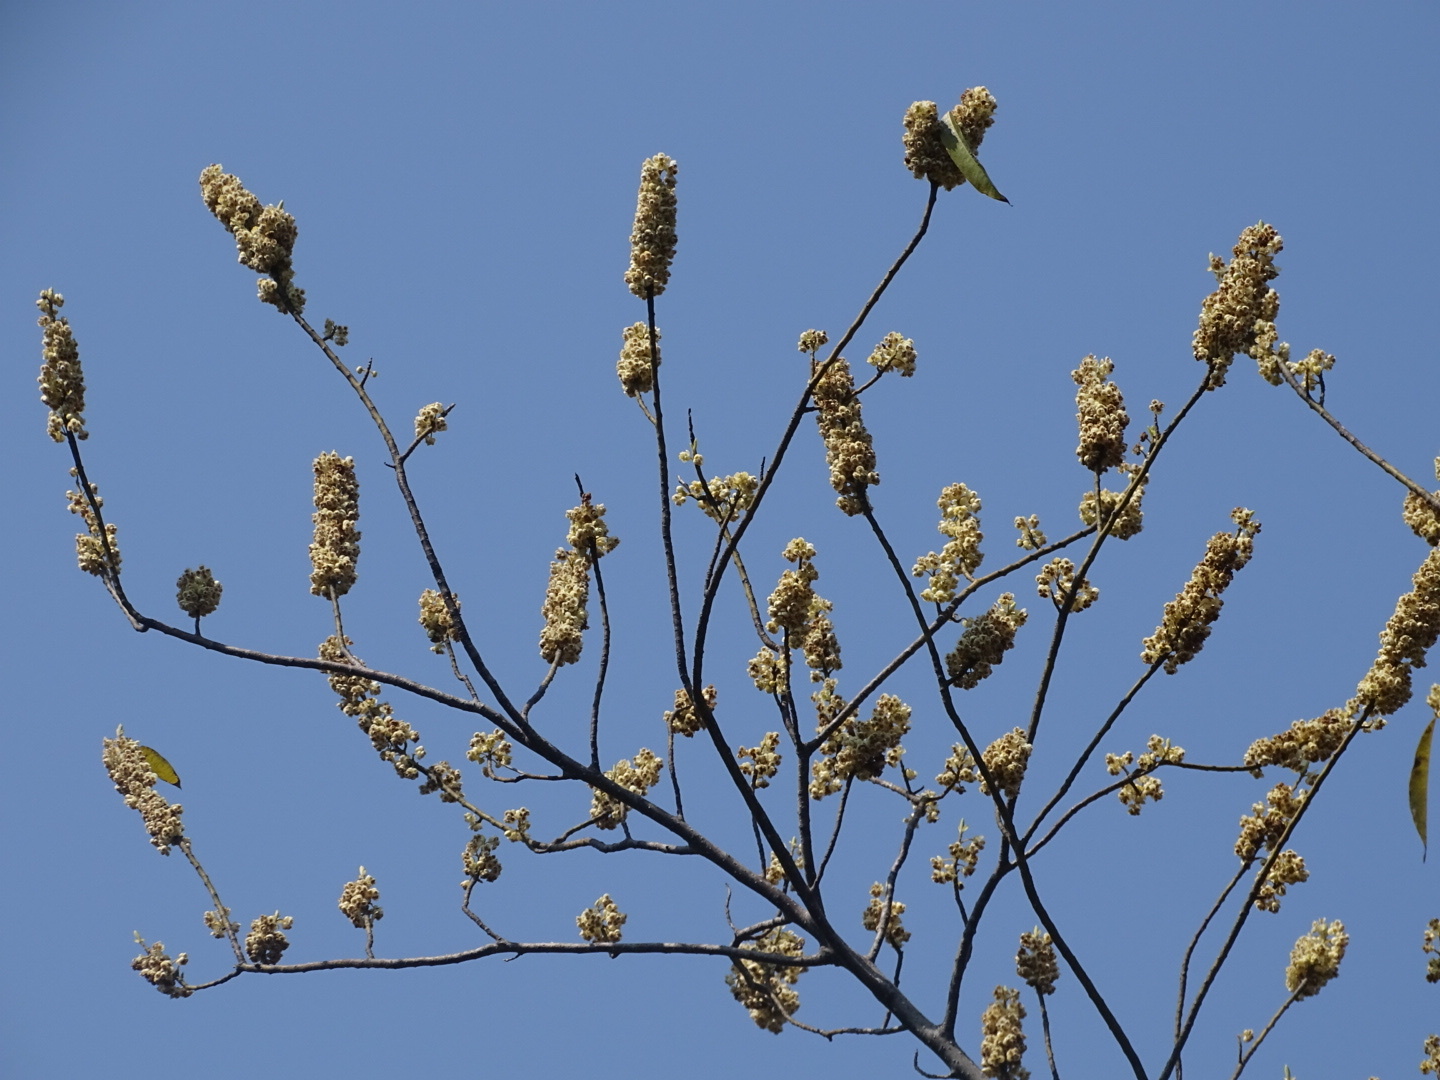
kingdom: Plantae
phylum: Tracheophyta
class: Magnoliopsida
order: Laurales
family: Lauraceae
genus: Litsea
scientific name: Litsea cubeba
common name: Mountain-pepper
